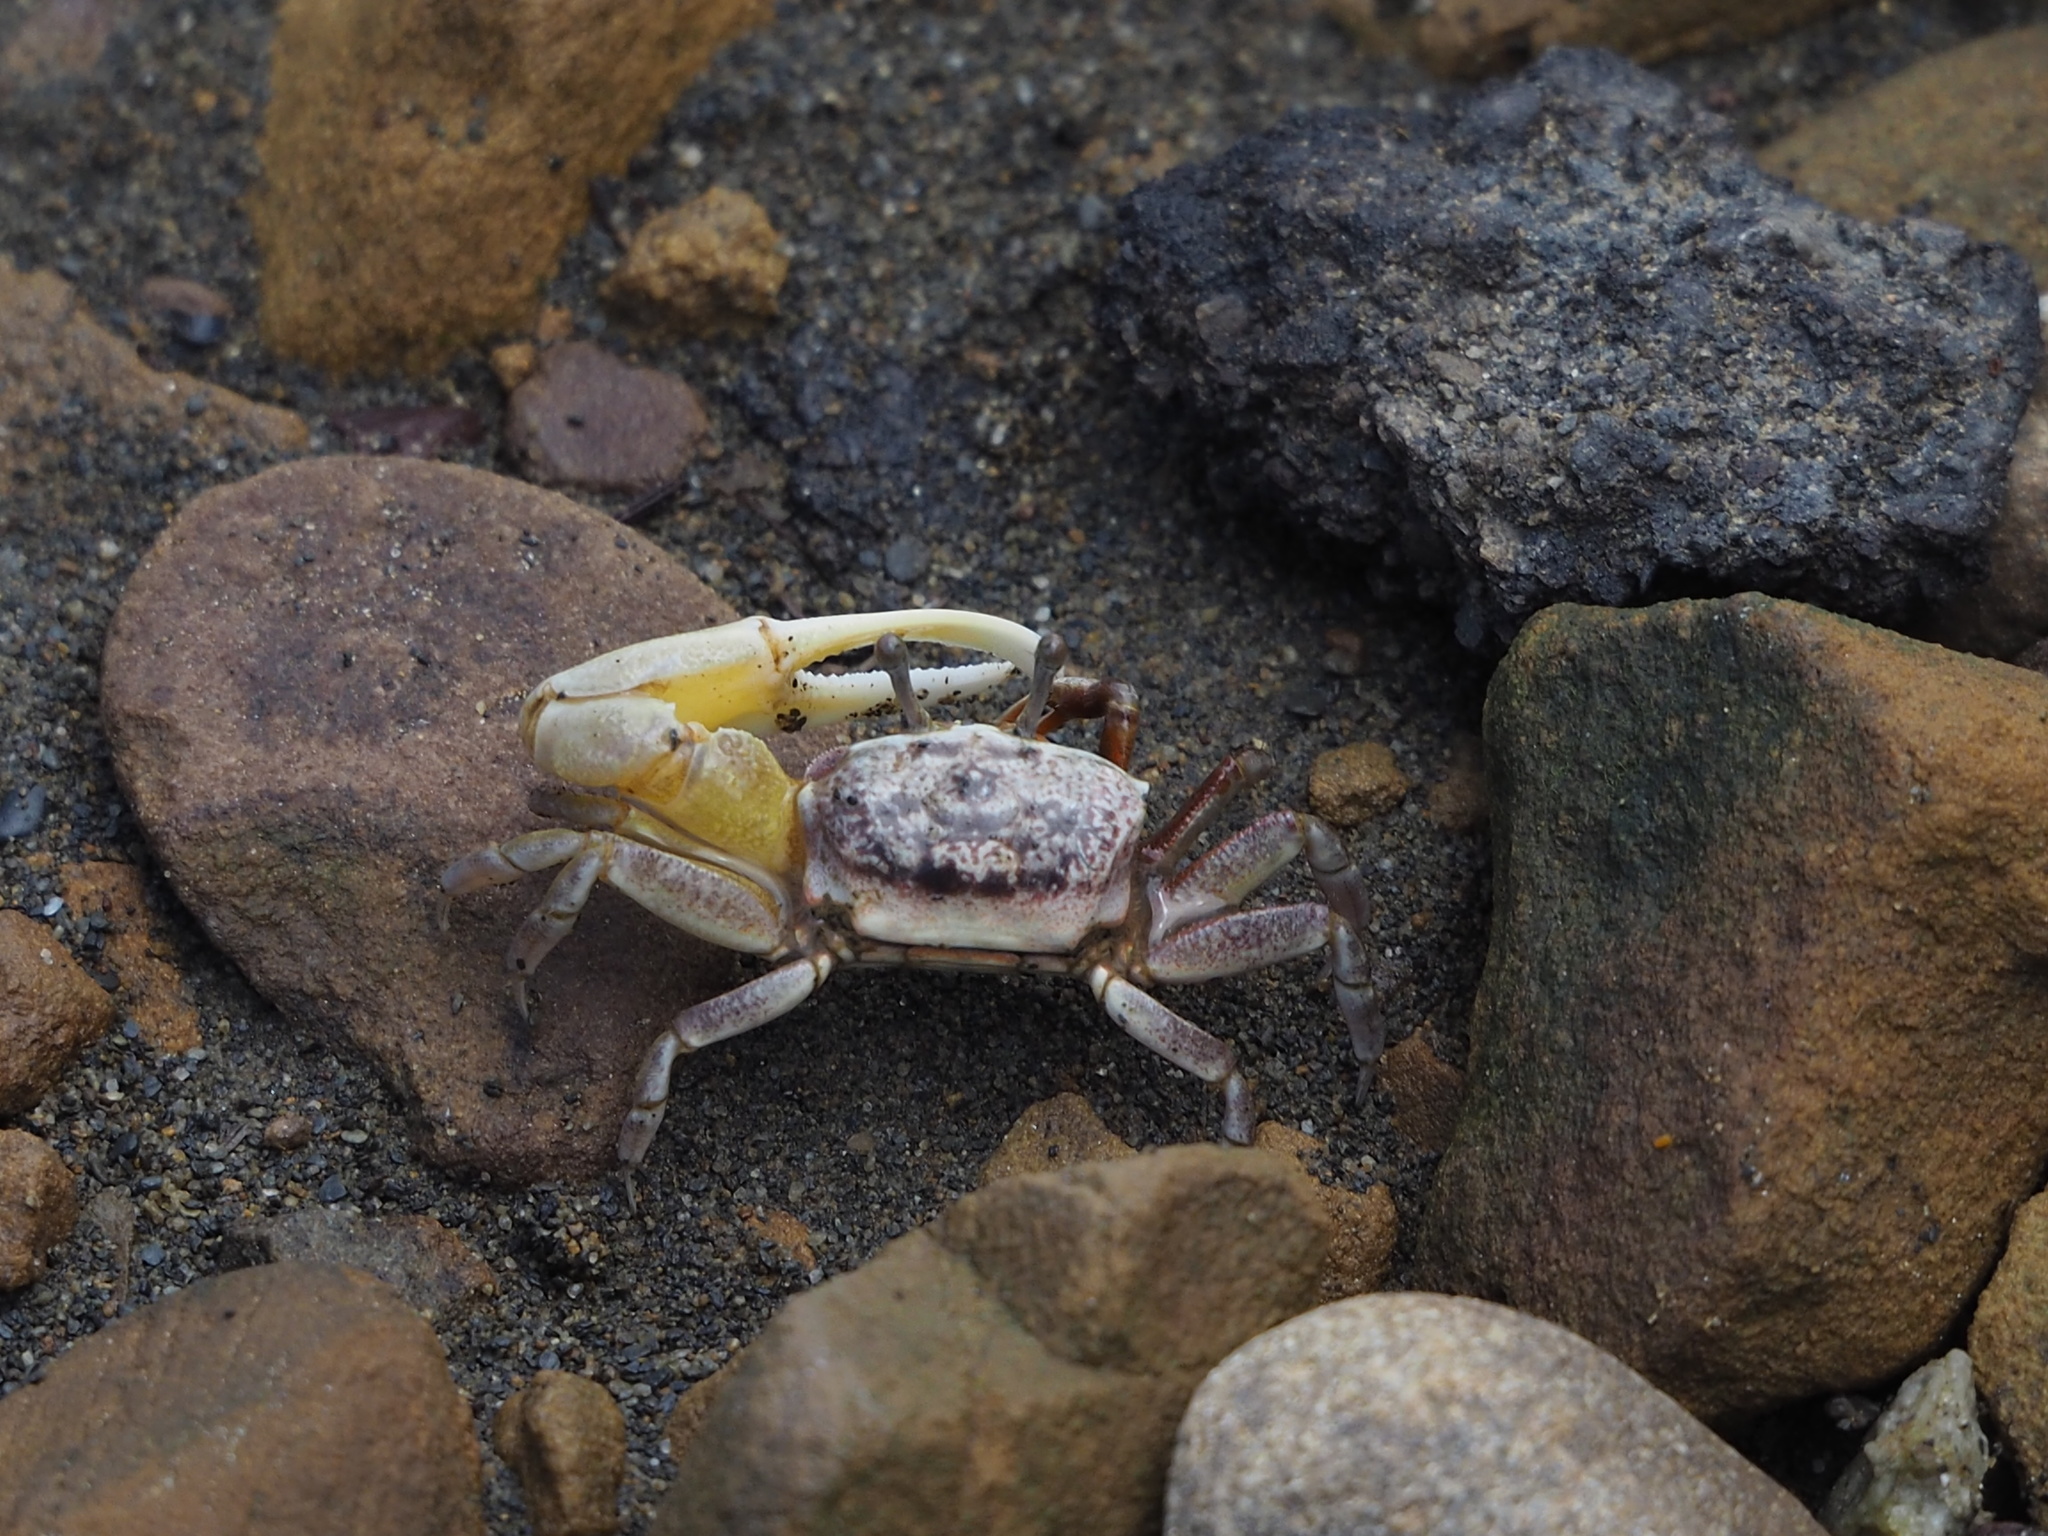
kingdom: Animalia
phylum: Arthropoda
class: Malacostraca
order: Decapoda
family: Ocypodidae
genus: Austruca
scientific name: Austruca lactea
